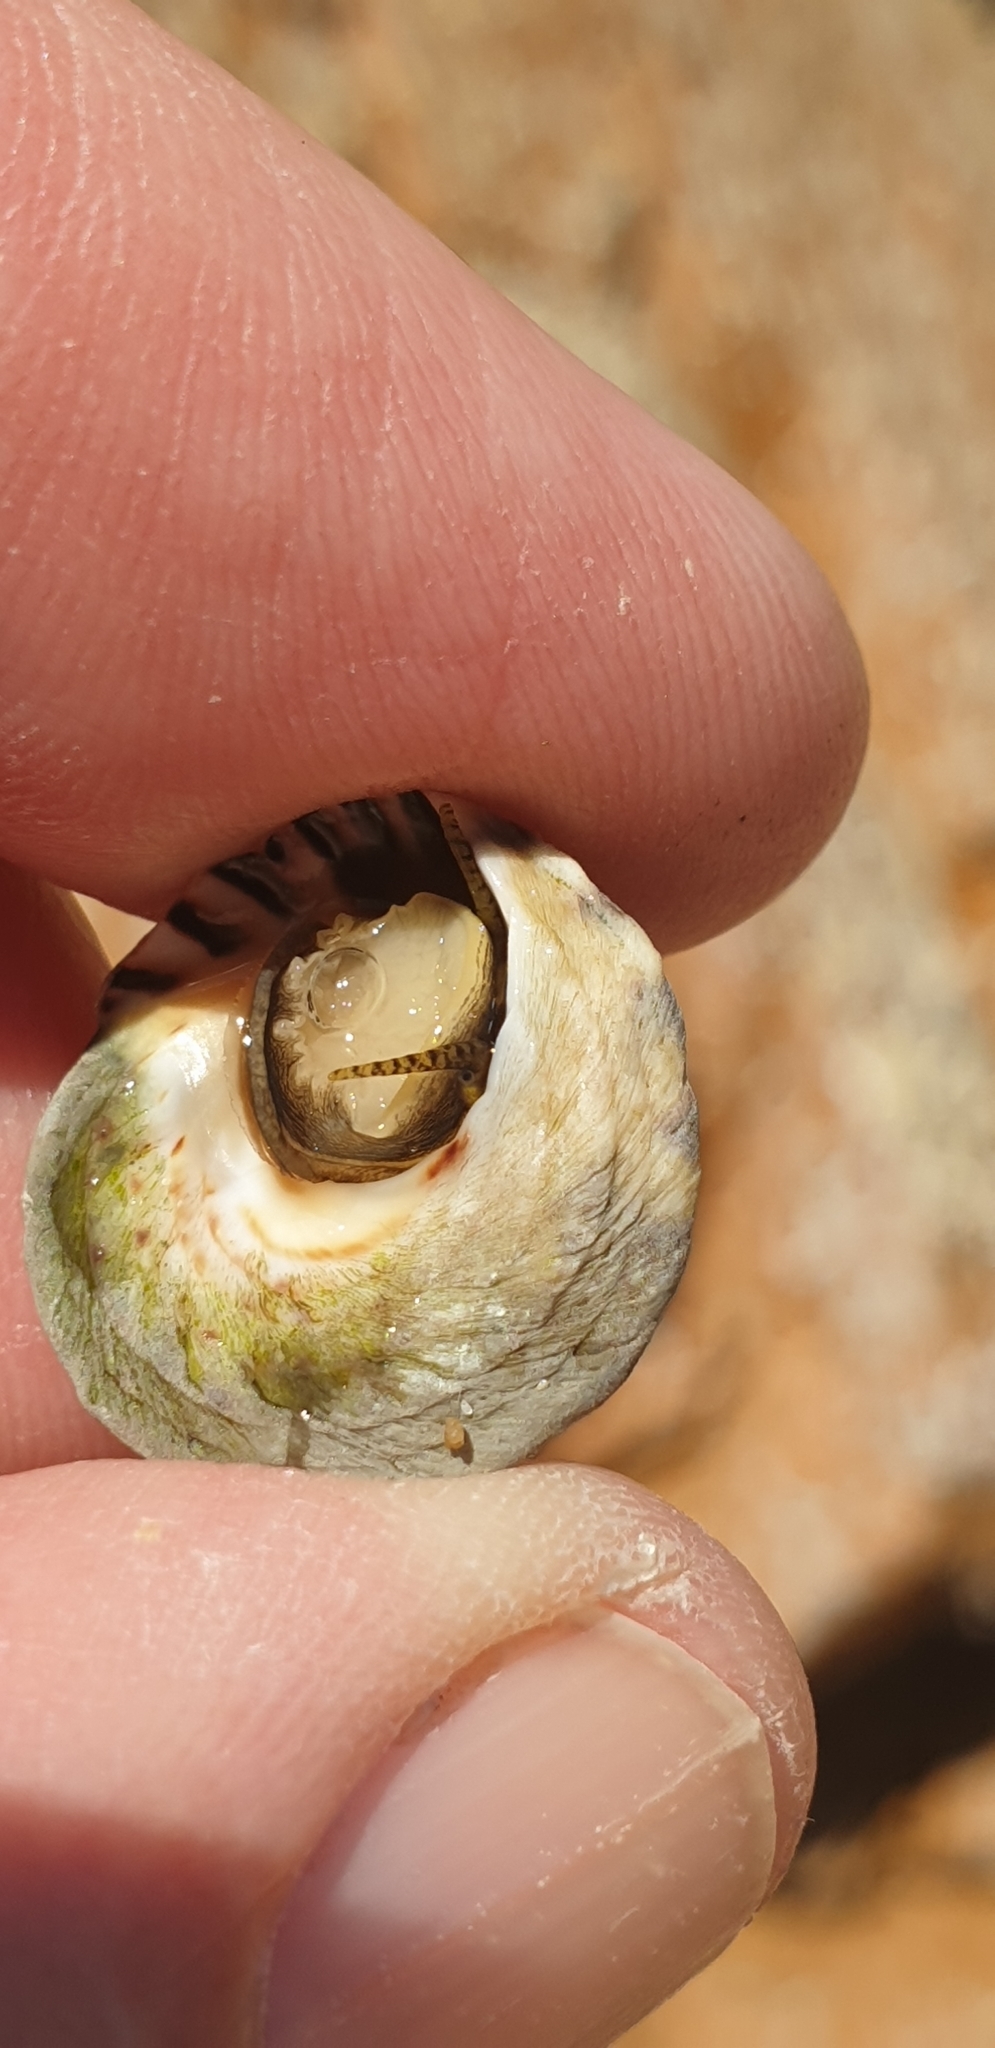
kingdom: Animalia
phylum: Mollusca
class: Gastropoda
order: Littorinimorpha
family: Littorinidae
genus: Bembicium
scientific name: Bembicium nanum
